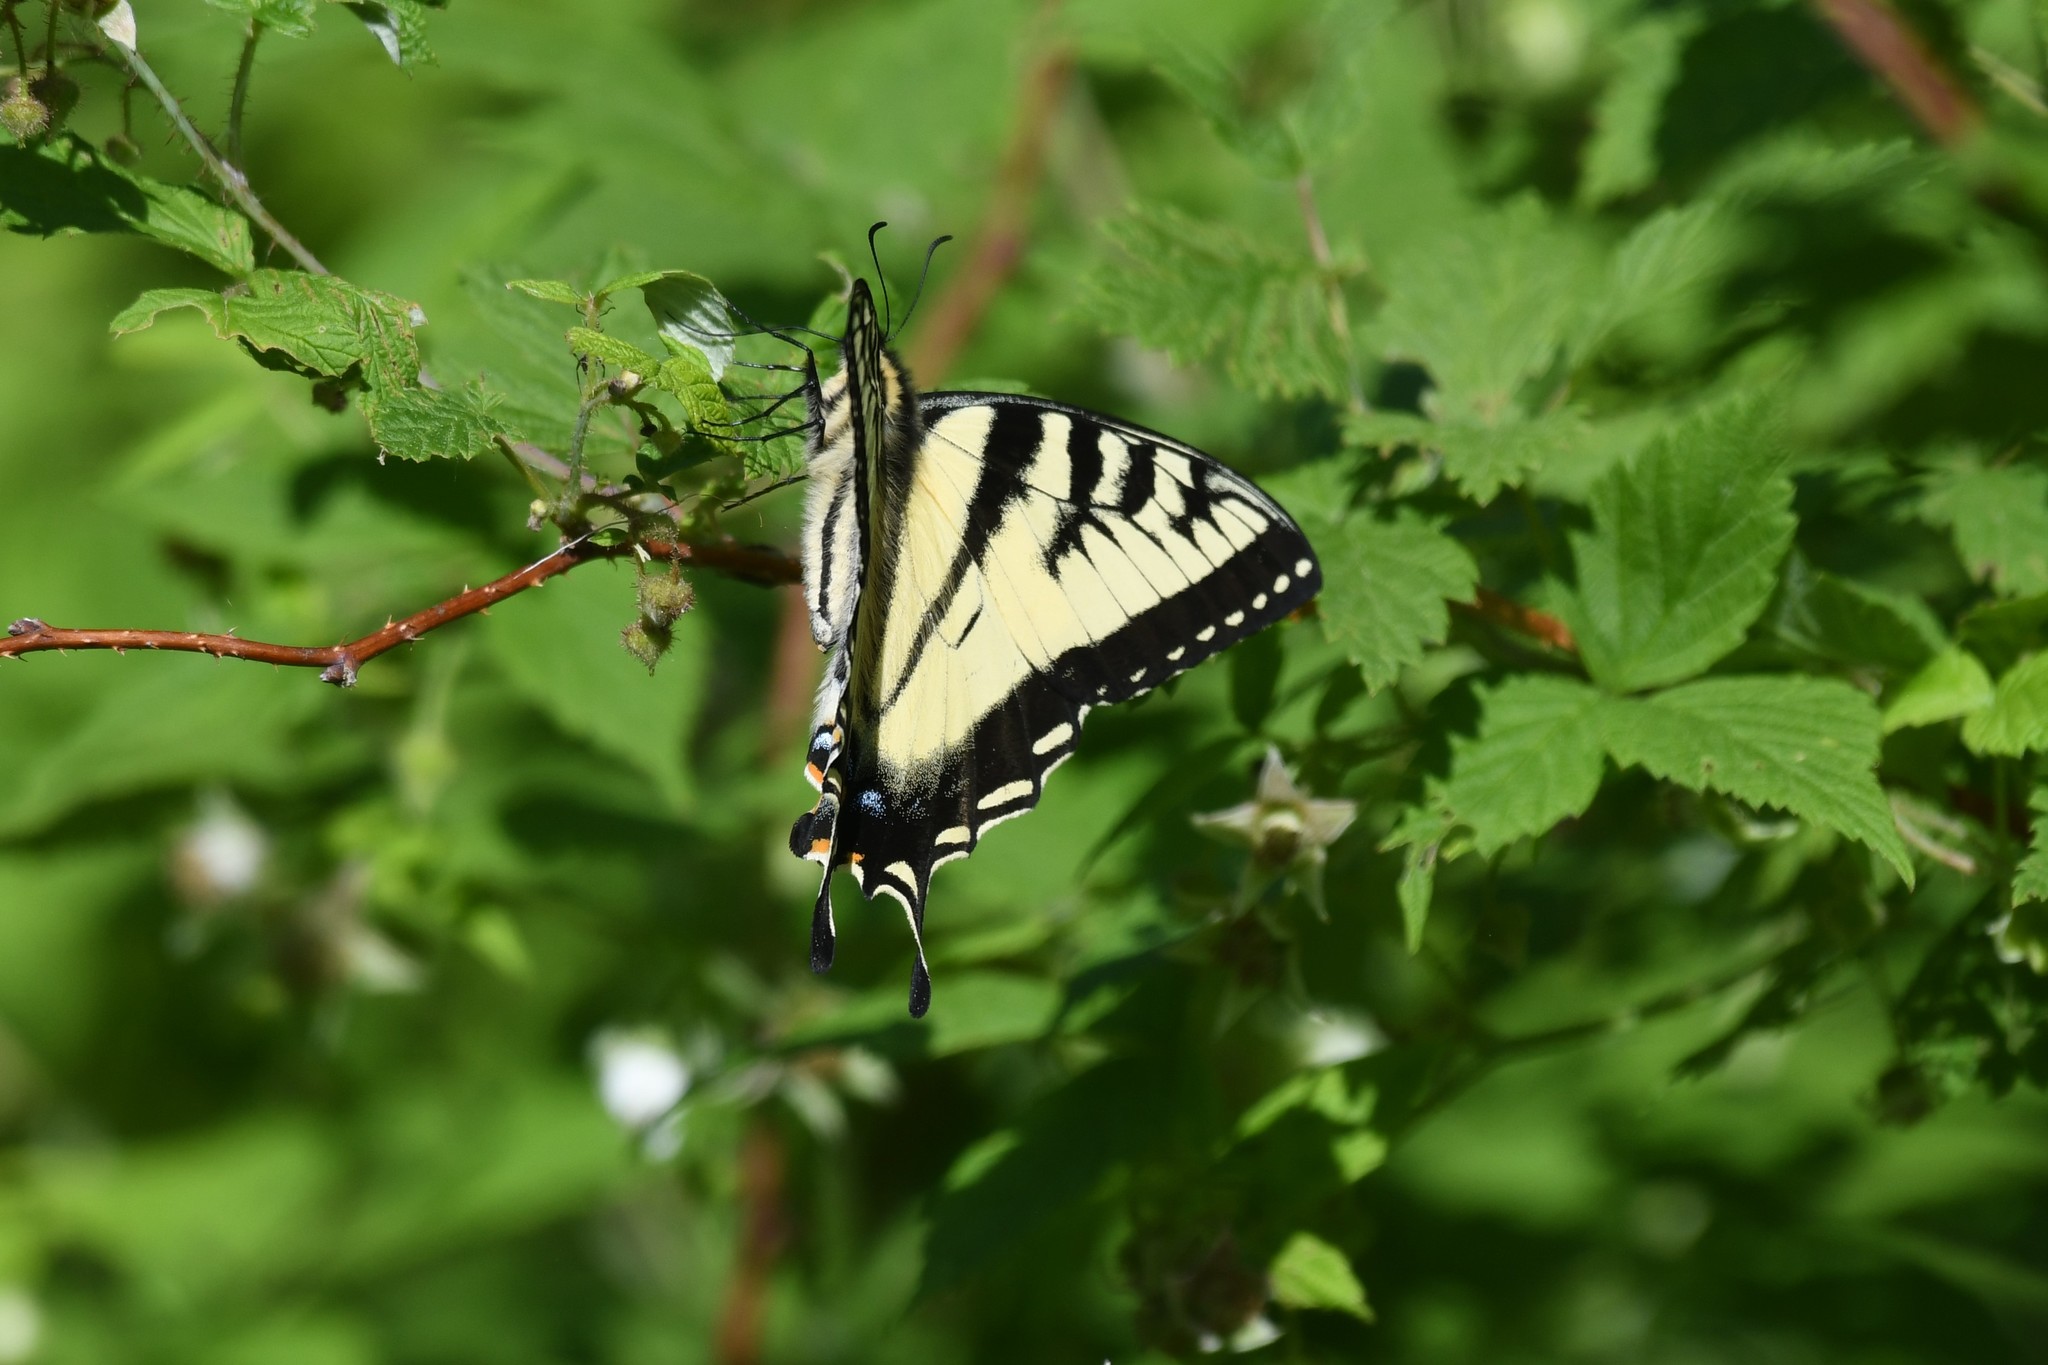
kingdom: Animalia
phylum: Arthropoda
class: Insecta
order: Lepidoptera
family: Papilionidae
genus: Papilio
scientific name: Papilio canadensis
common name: Canadian tiger swallowtail
